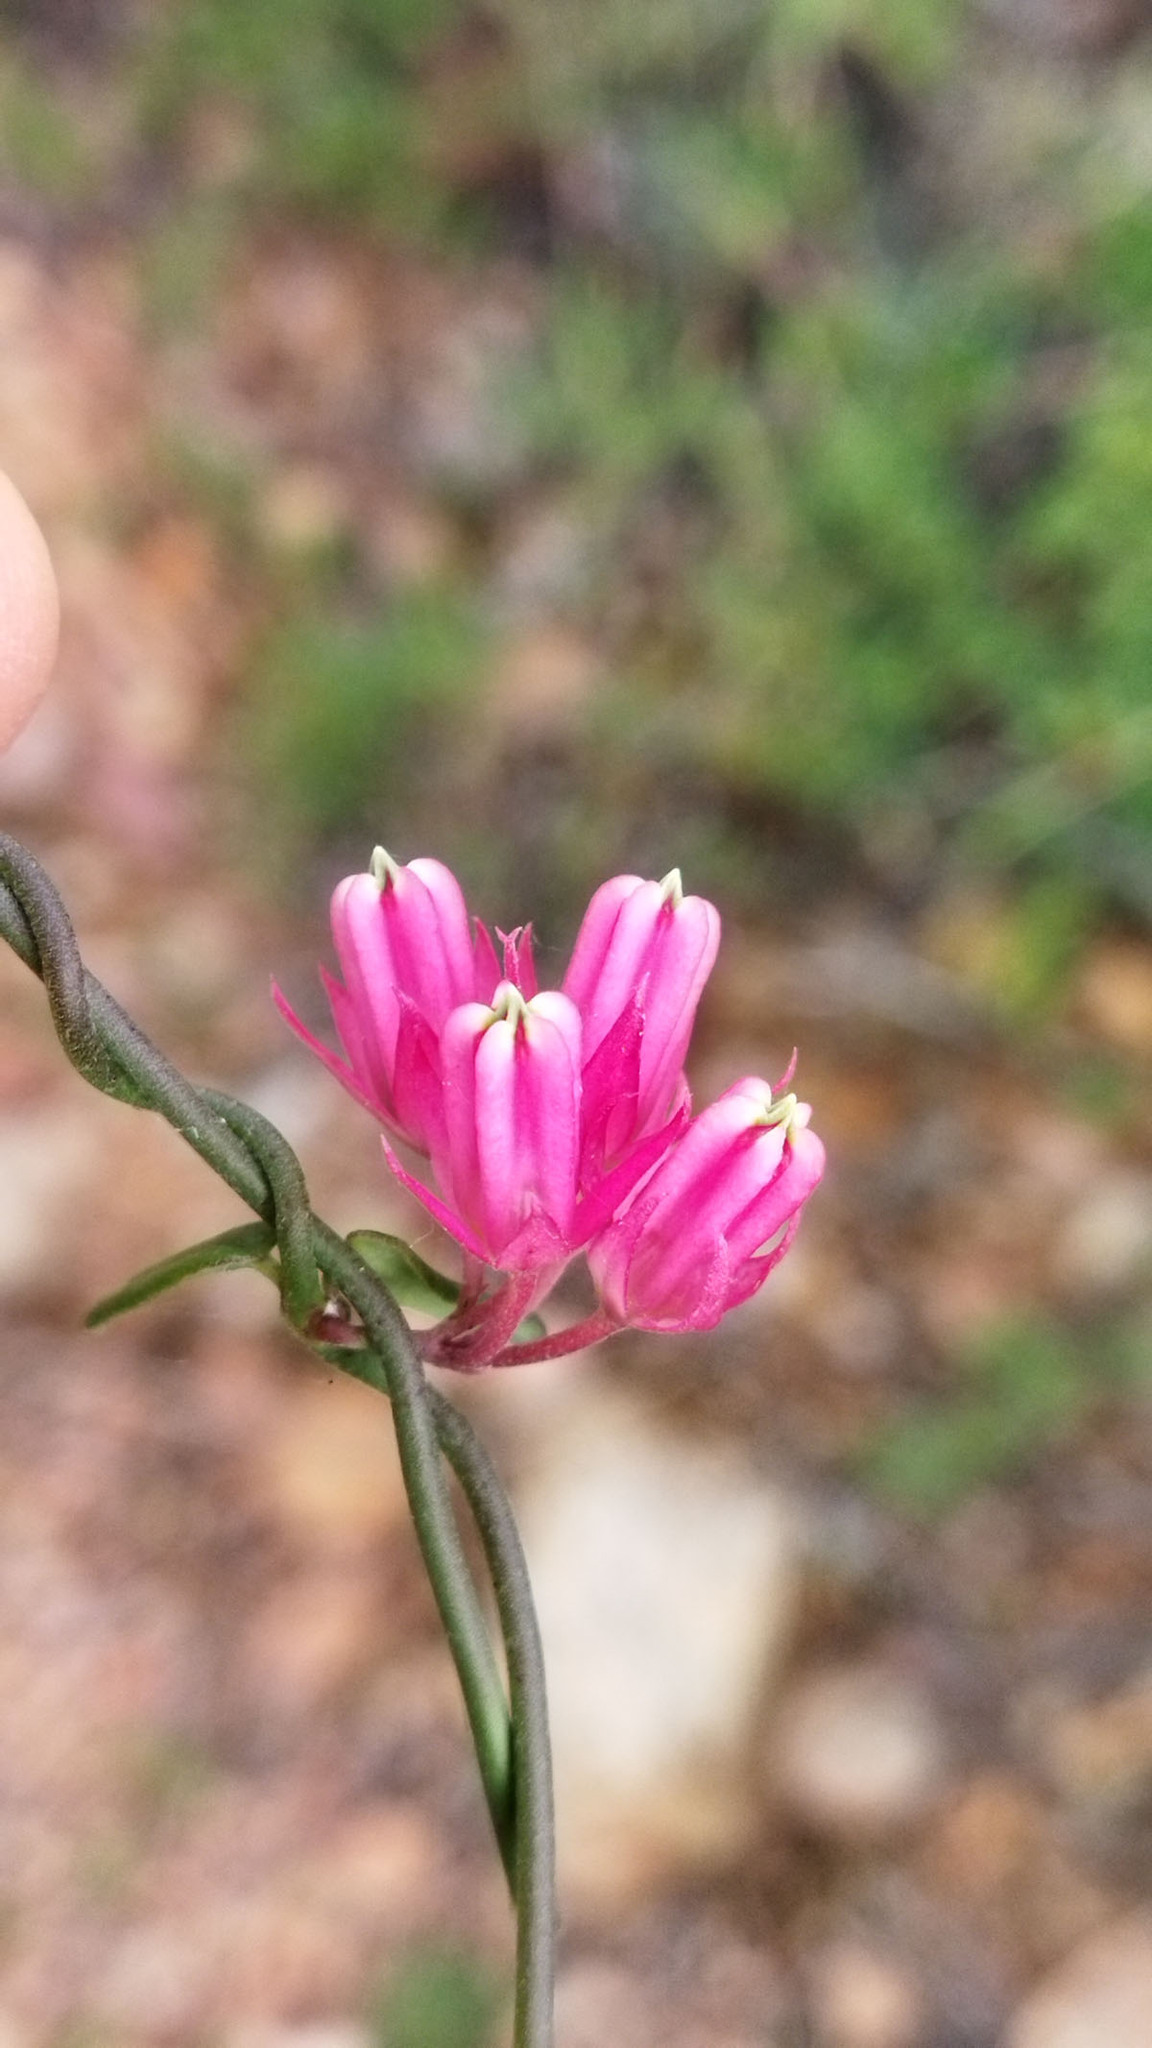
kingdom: Plantae
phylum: Tracheophyta
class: Magnoliopsida
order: Gentianales
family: Apocynaceae
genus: Microloma
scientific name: Microloma sagittatum
